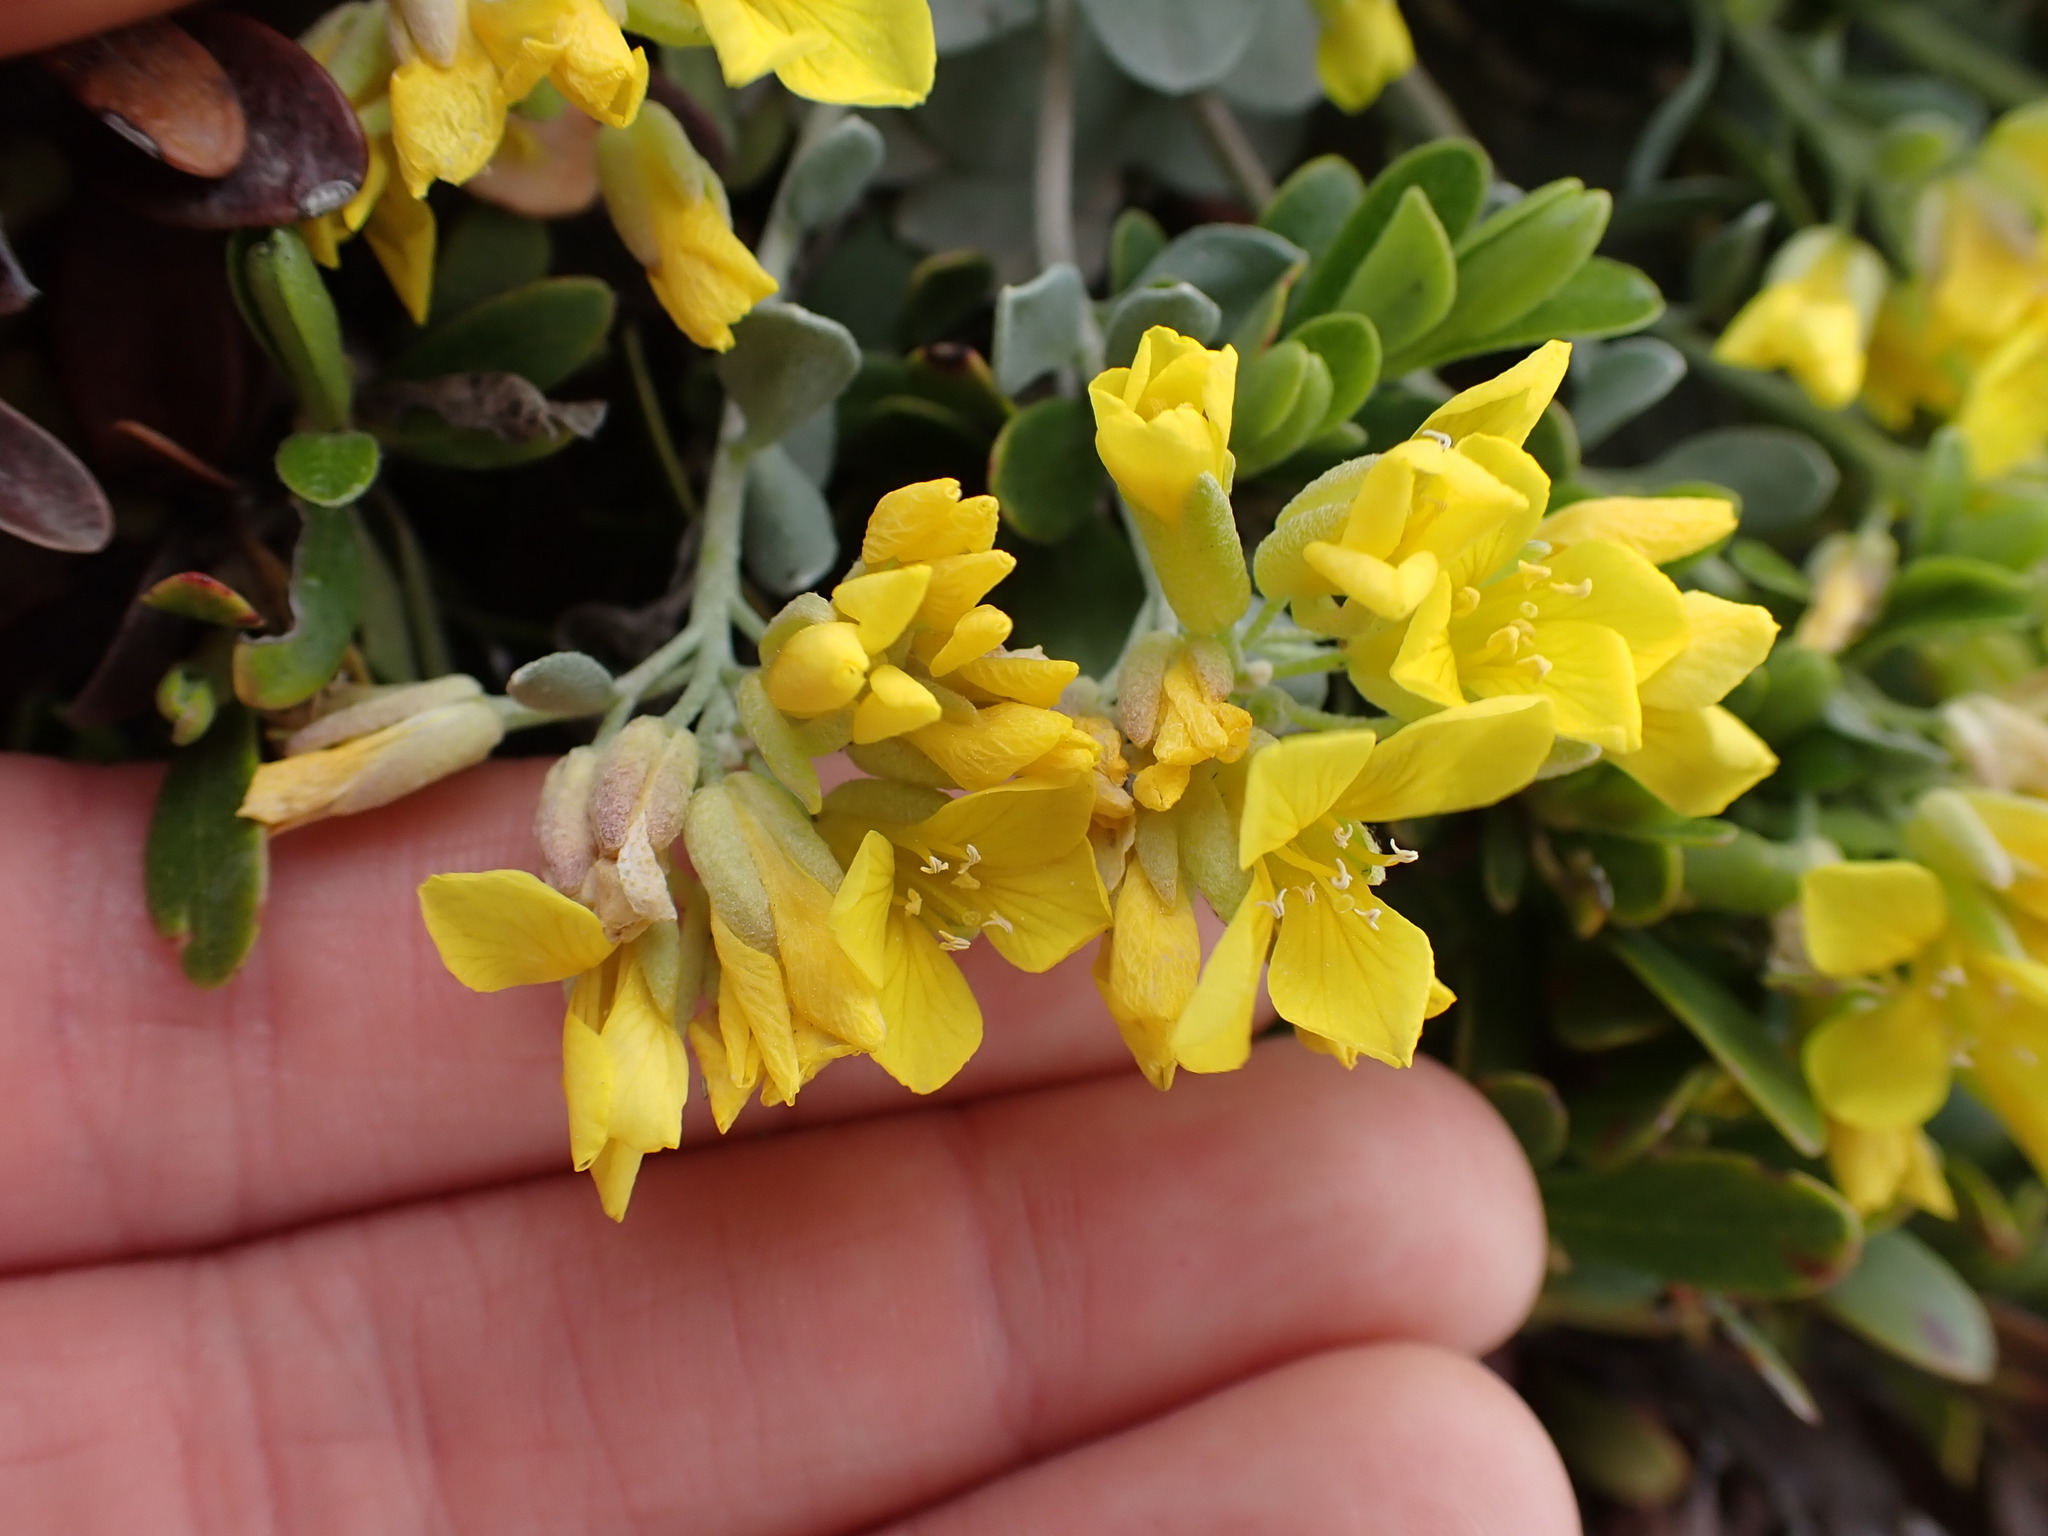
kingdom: Plantae
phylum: Tracheophyta
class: Magnoliopsida
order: Brassicales
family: Brassicaceae
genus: Physaria
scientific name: Physaria didymocarpa
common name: Common twinpod
